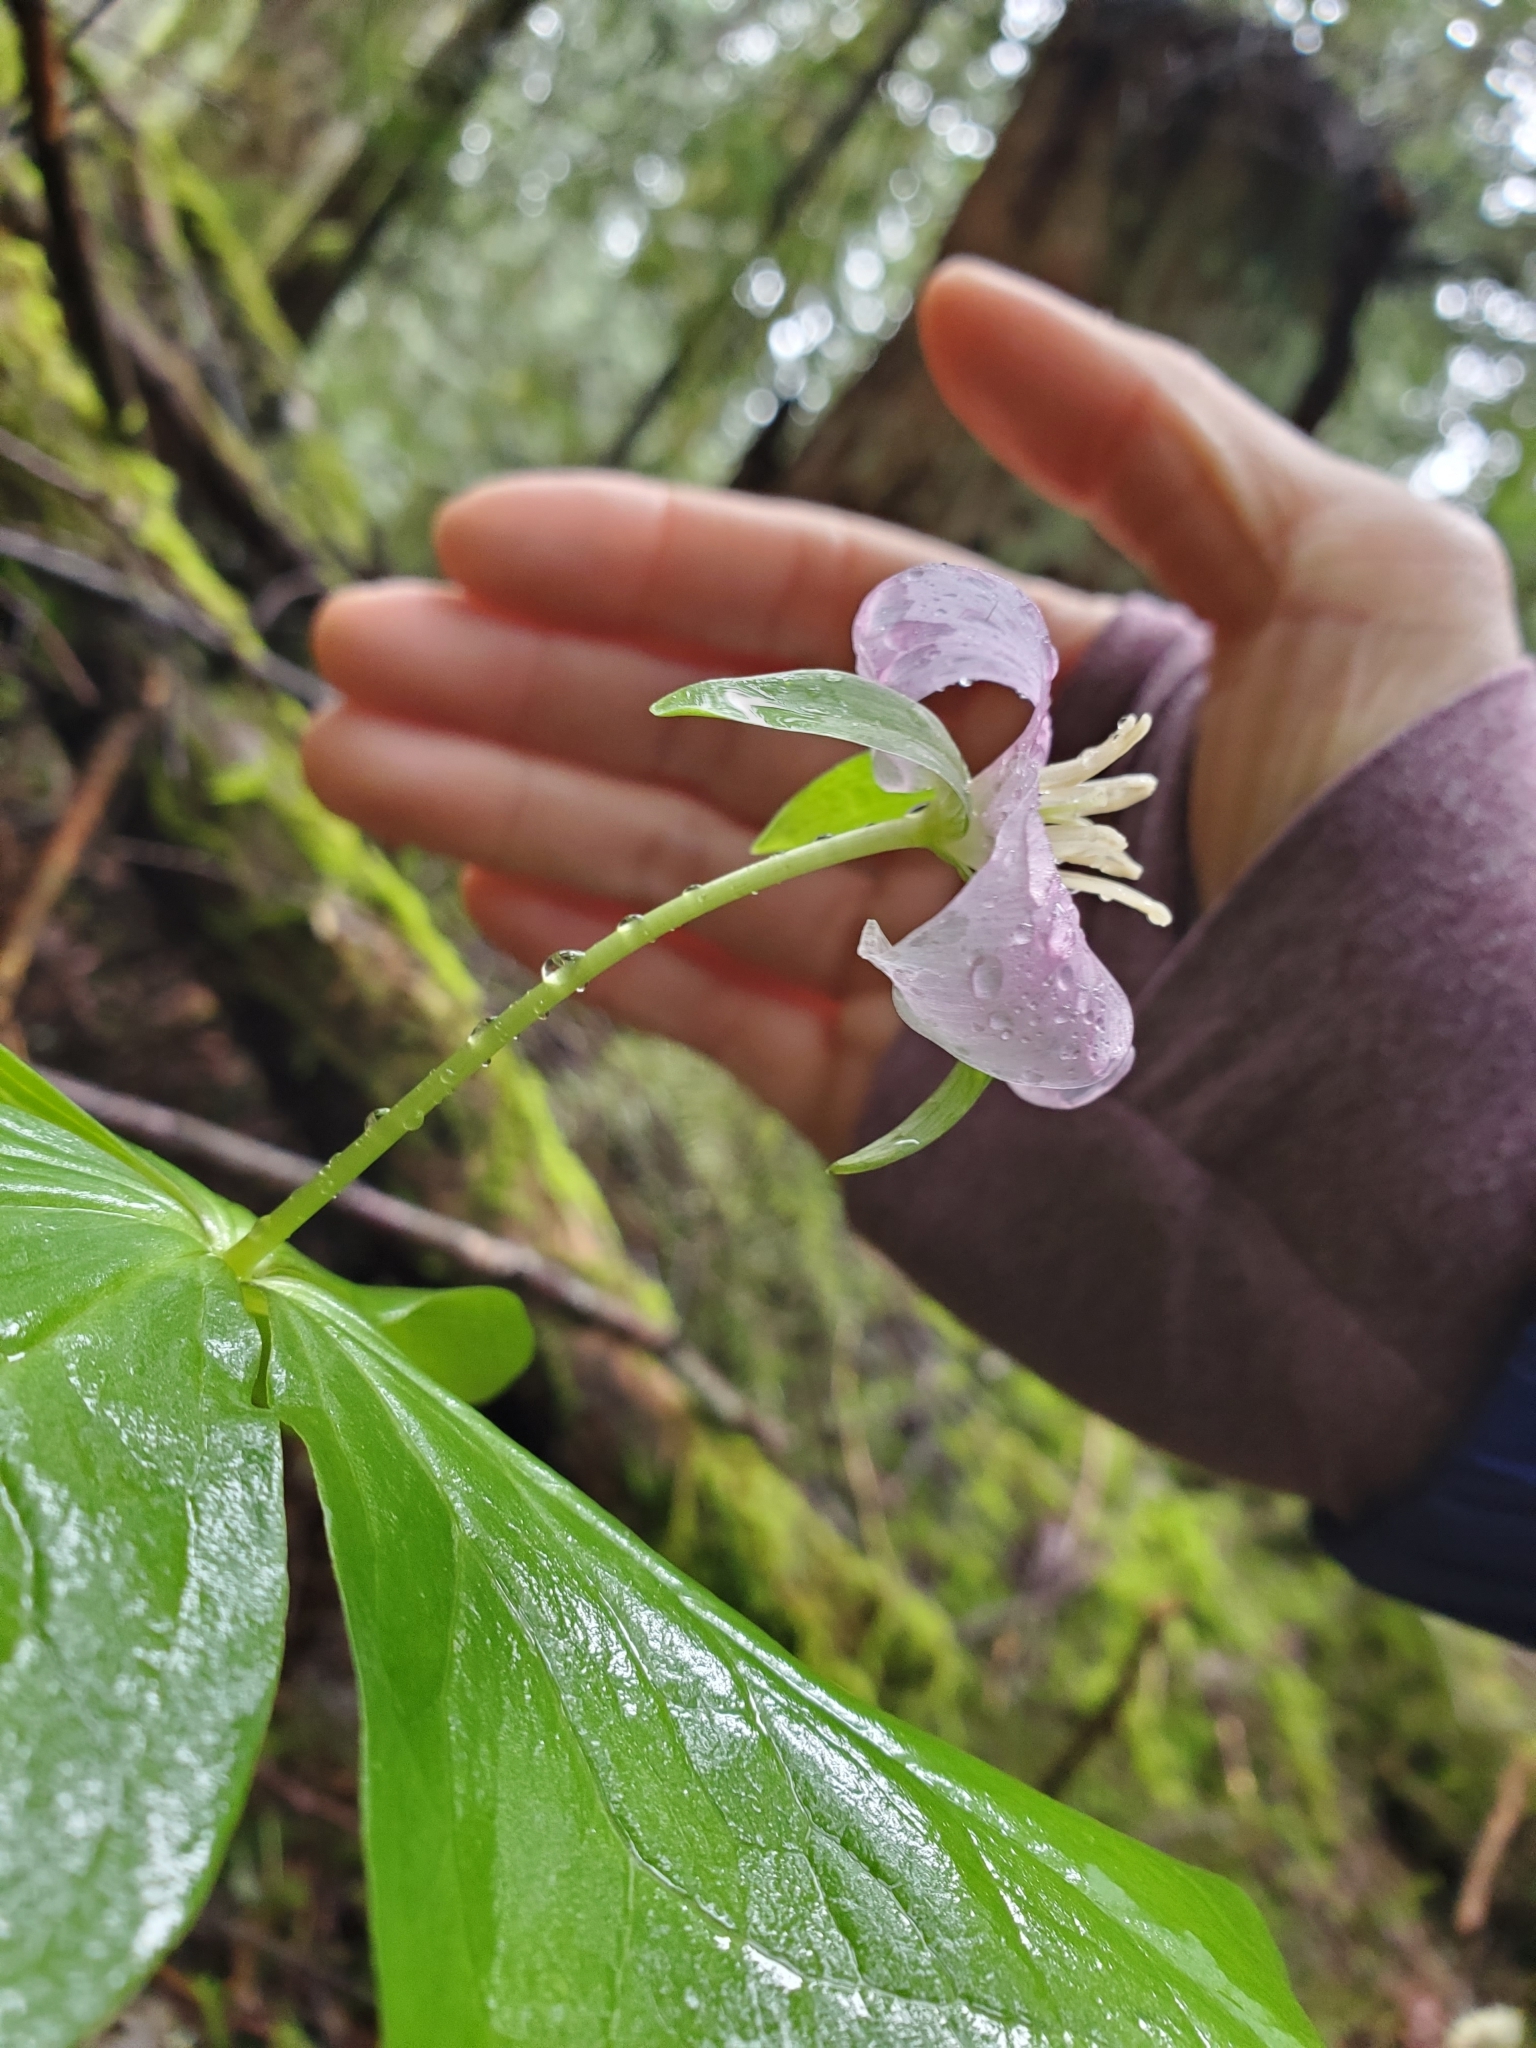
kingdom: Plantae
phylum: Tracheophyta
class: Liliopsida
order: Liliales
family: Melanthiaceae
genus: Trillium
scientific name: Trillium ovatum
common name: Pacific trillium
